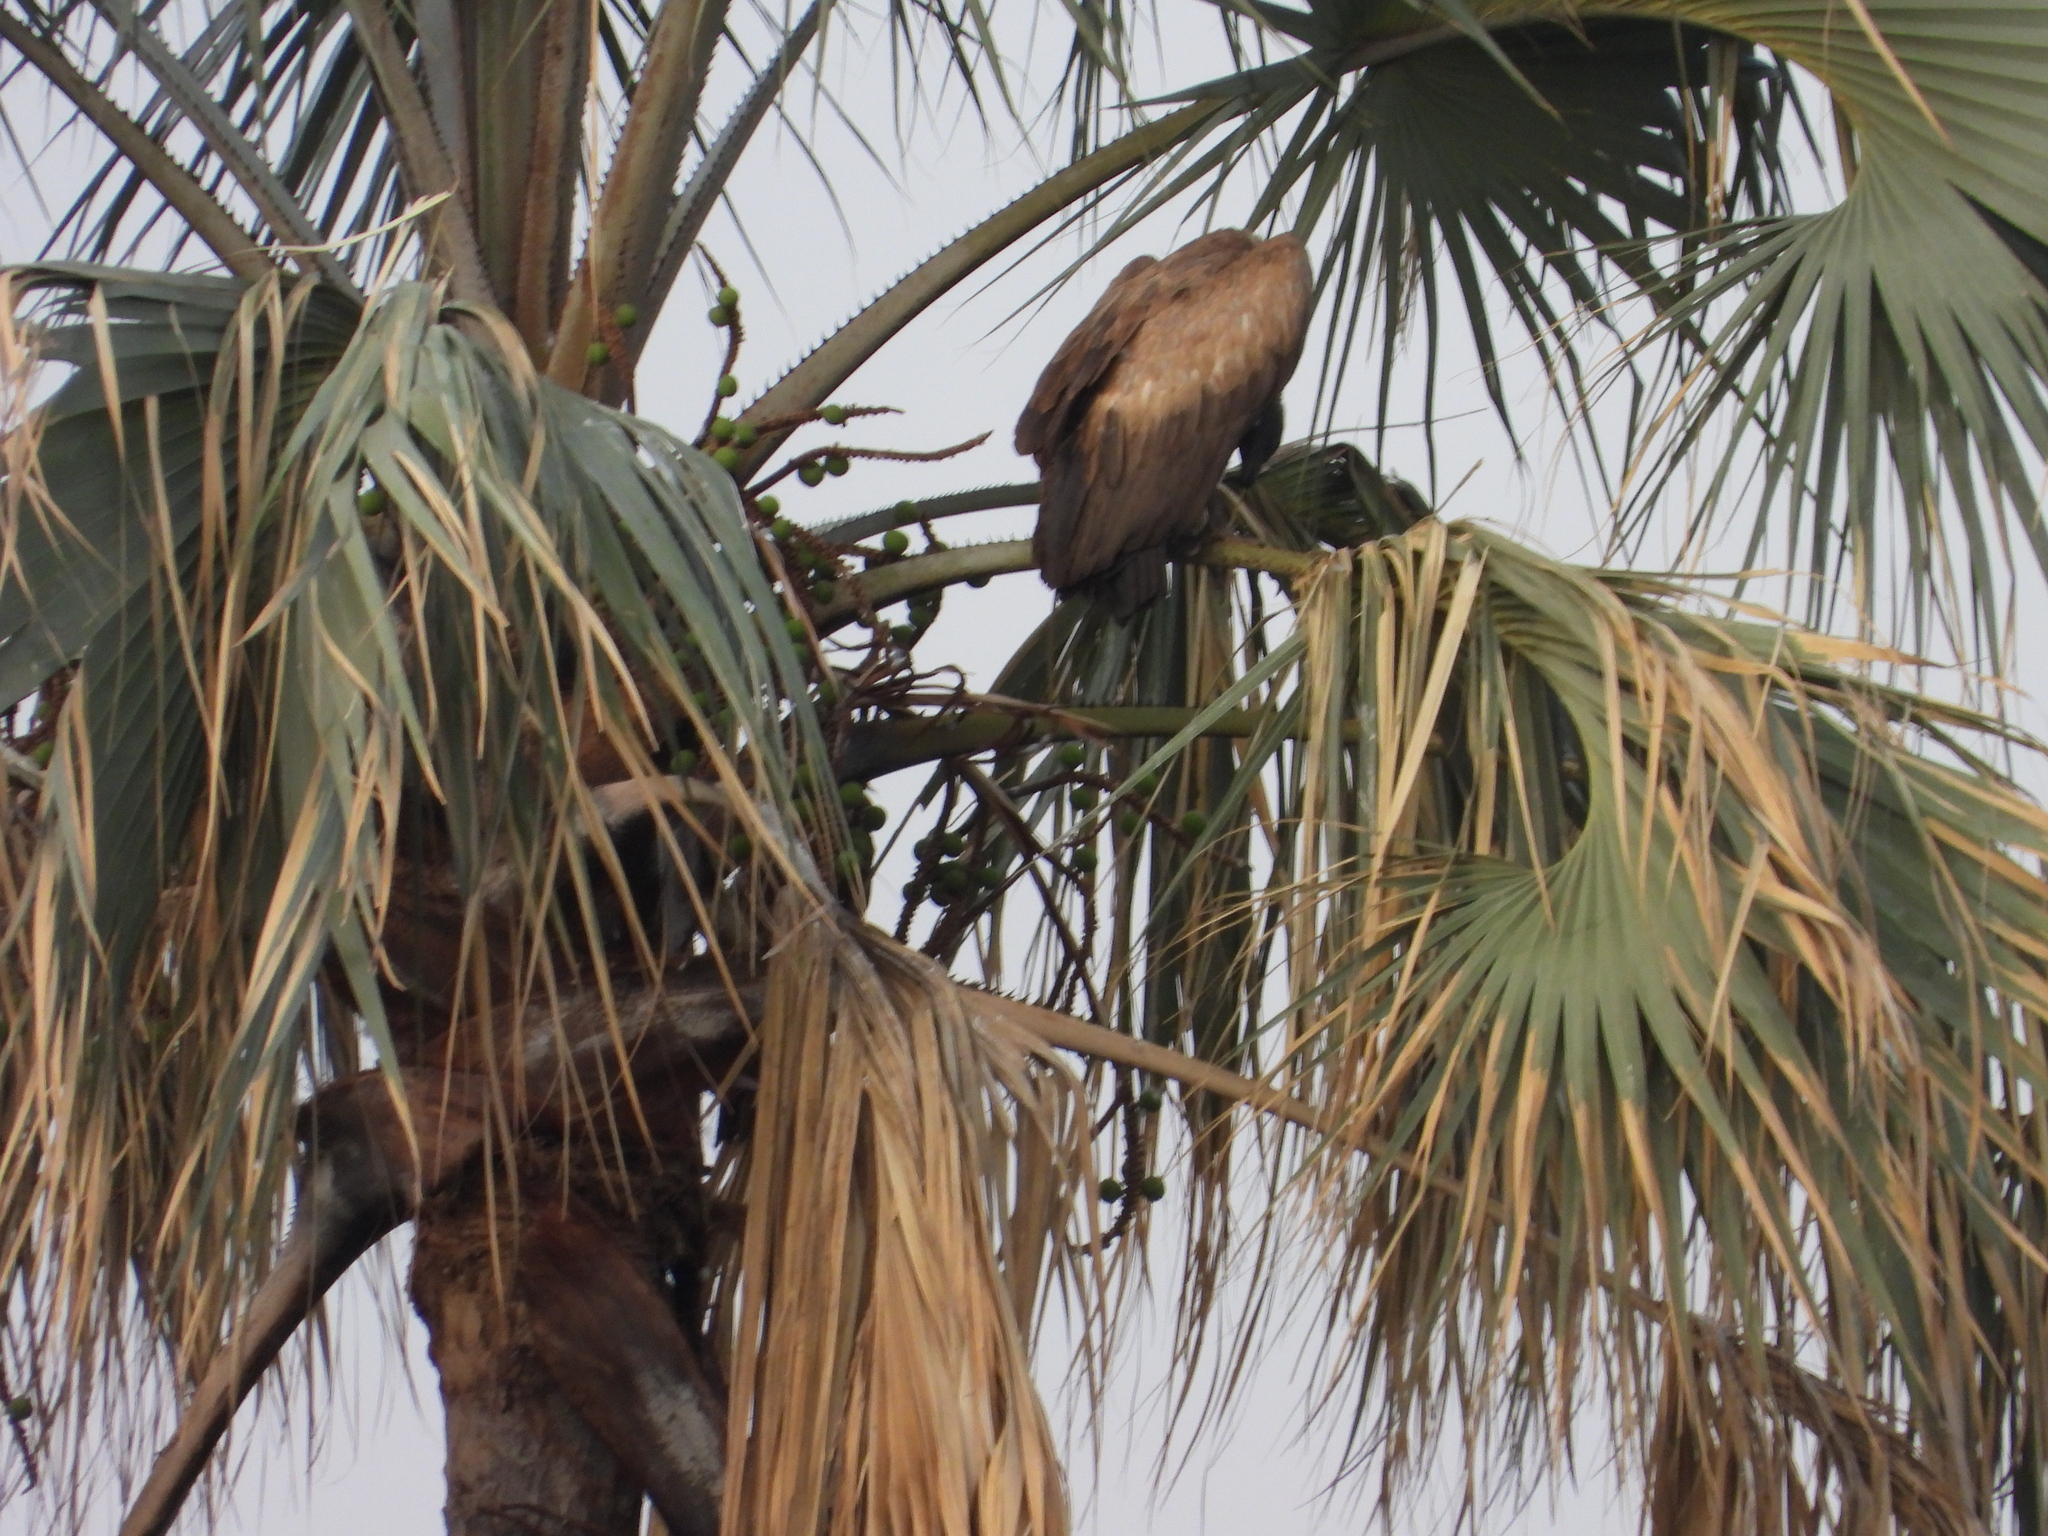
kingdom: Animalia
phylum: Chordata
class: Aves
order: Accipitriformes
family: Accipitridae
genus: Gyps
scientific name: Gyps africanus
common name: White-backed vulture
